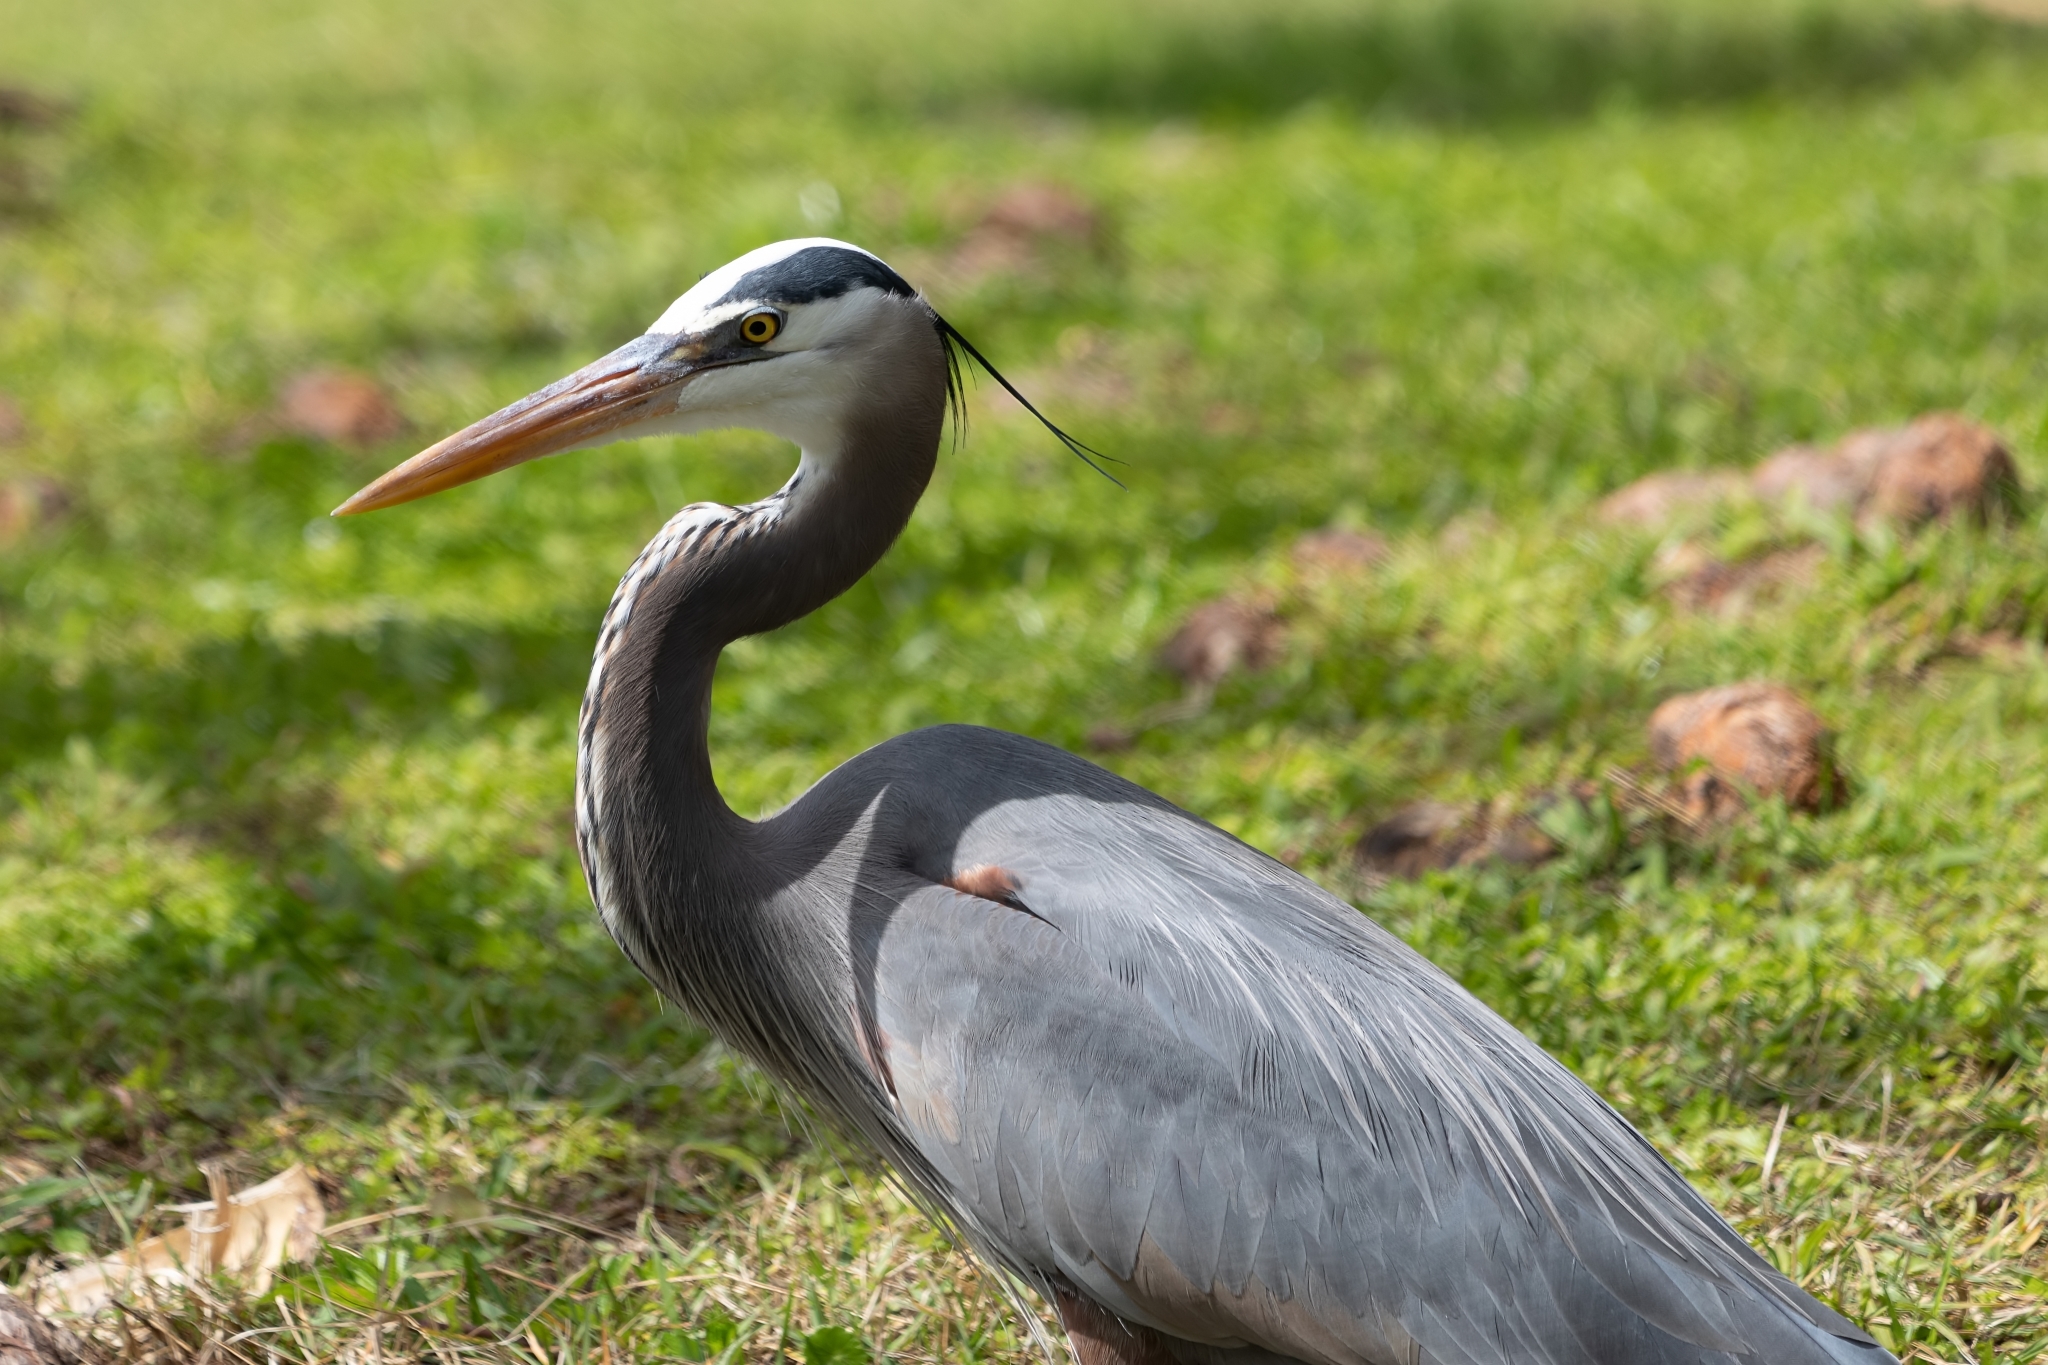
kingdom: Animalia
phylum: Chordata
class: Aves
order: Pelecaniformes
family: Ardeidae
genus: Ardea
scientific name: Ardea herodias
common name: Great blue heron
